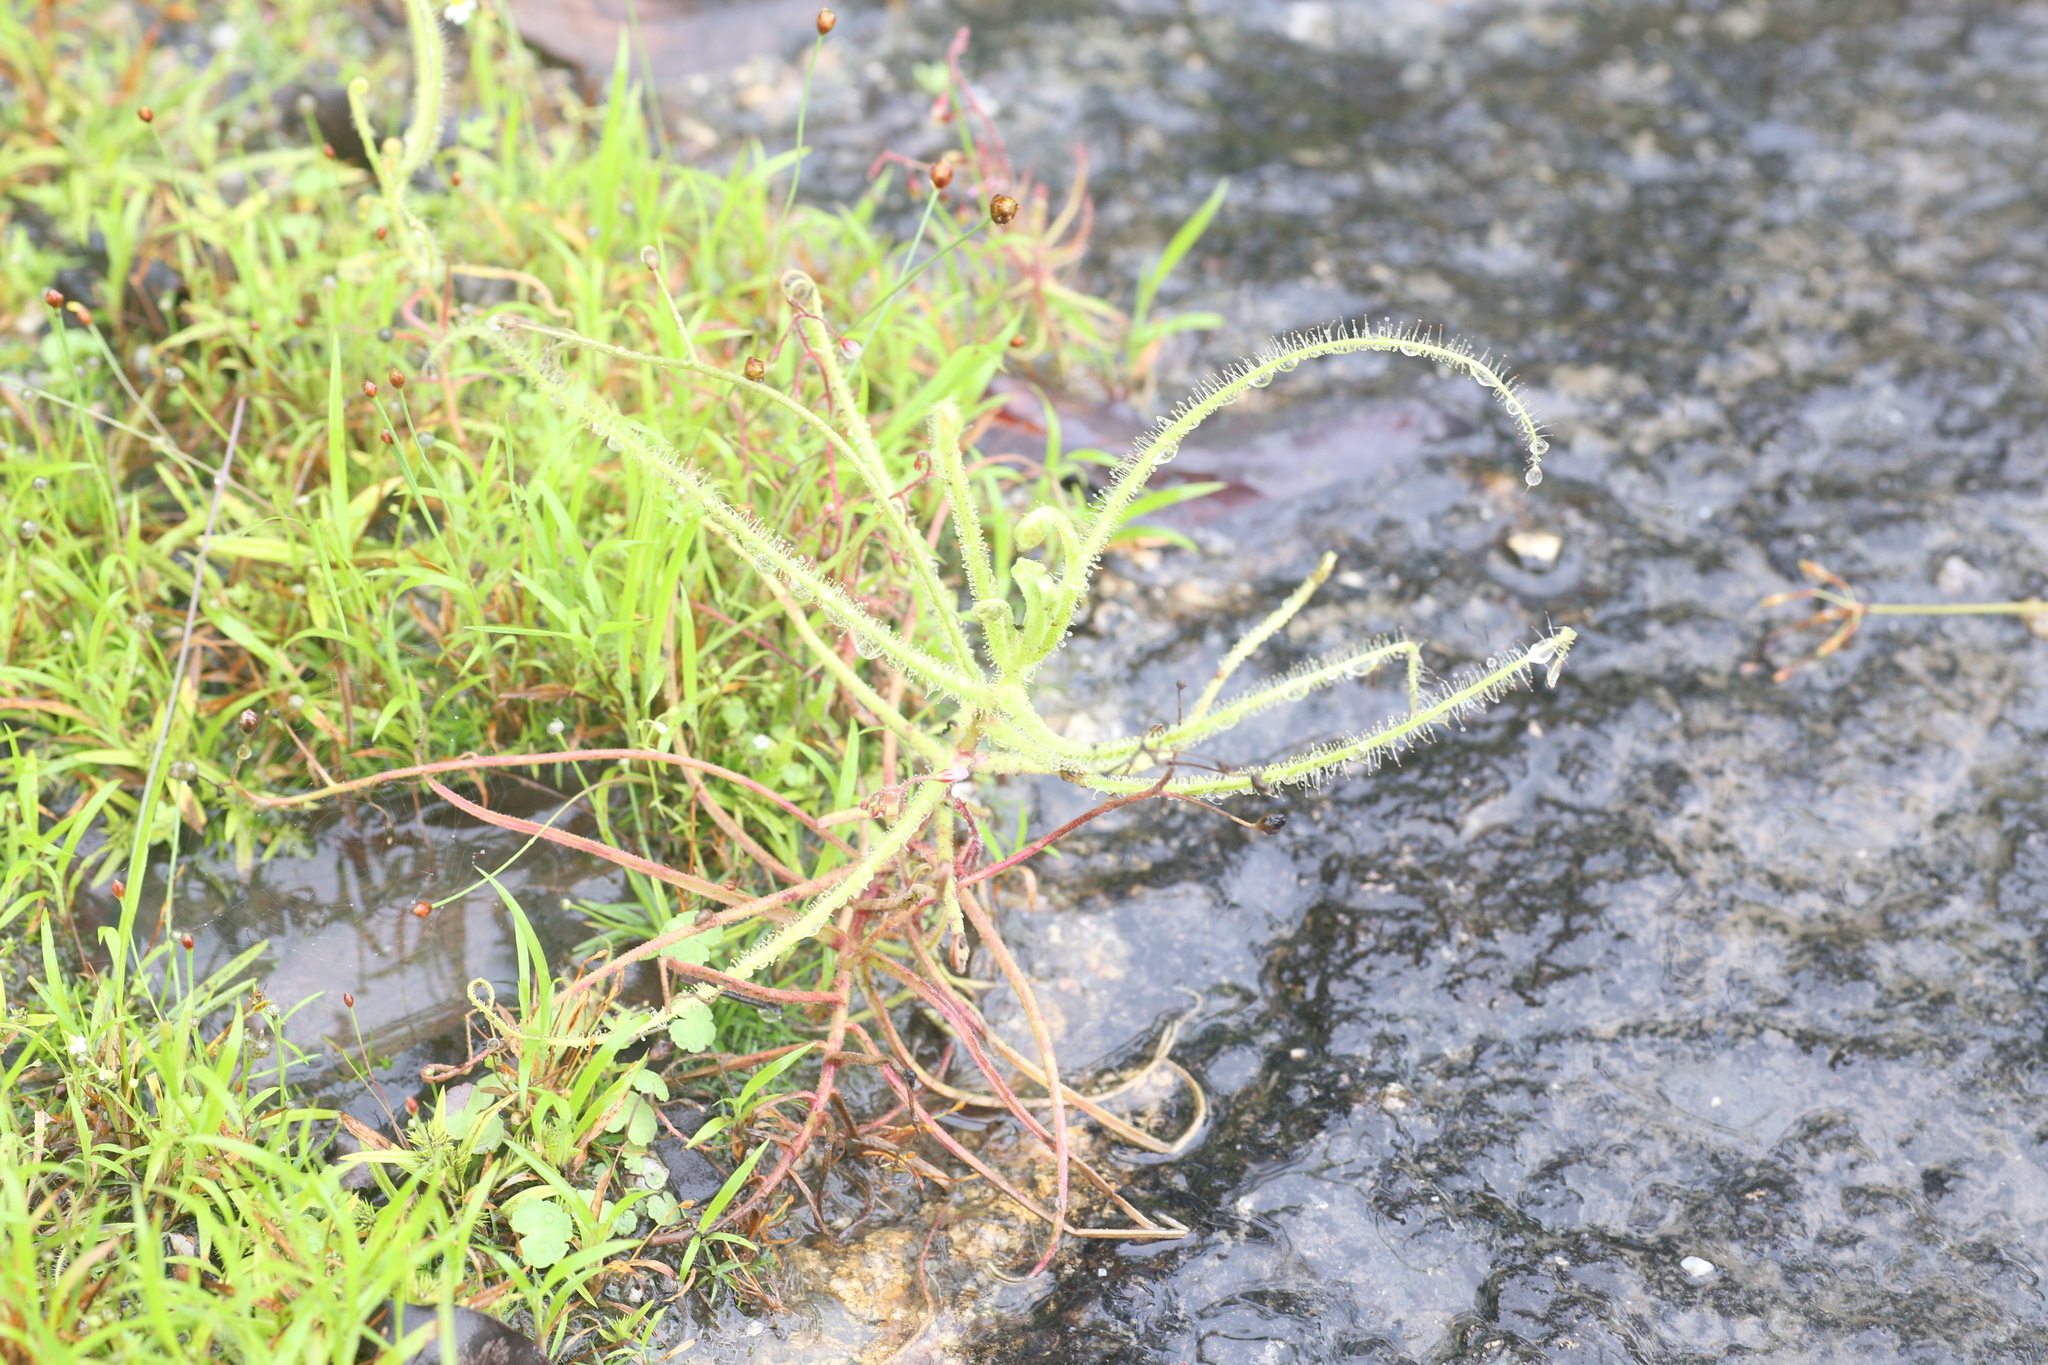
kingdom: Plantae
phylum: Tracheophyta
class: Magnoliopsida
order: Caryophyllales
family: Droseraceae
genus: Drosera
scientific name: Drosera finlaysoniana
